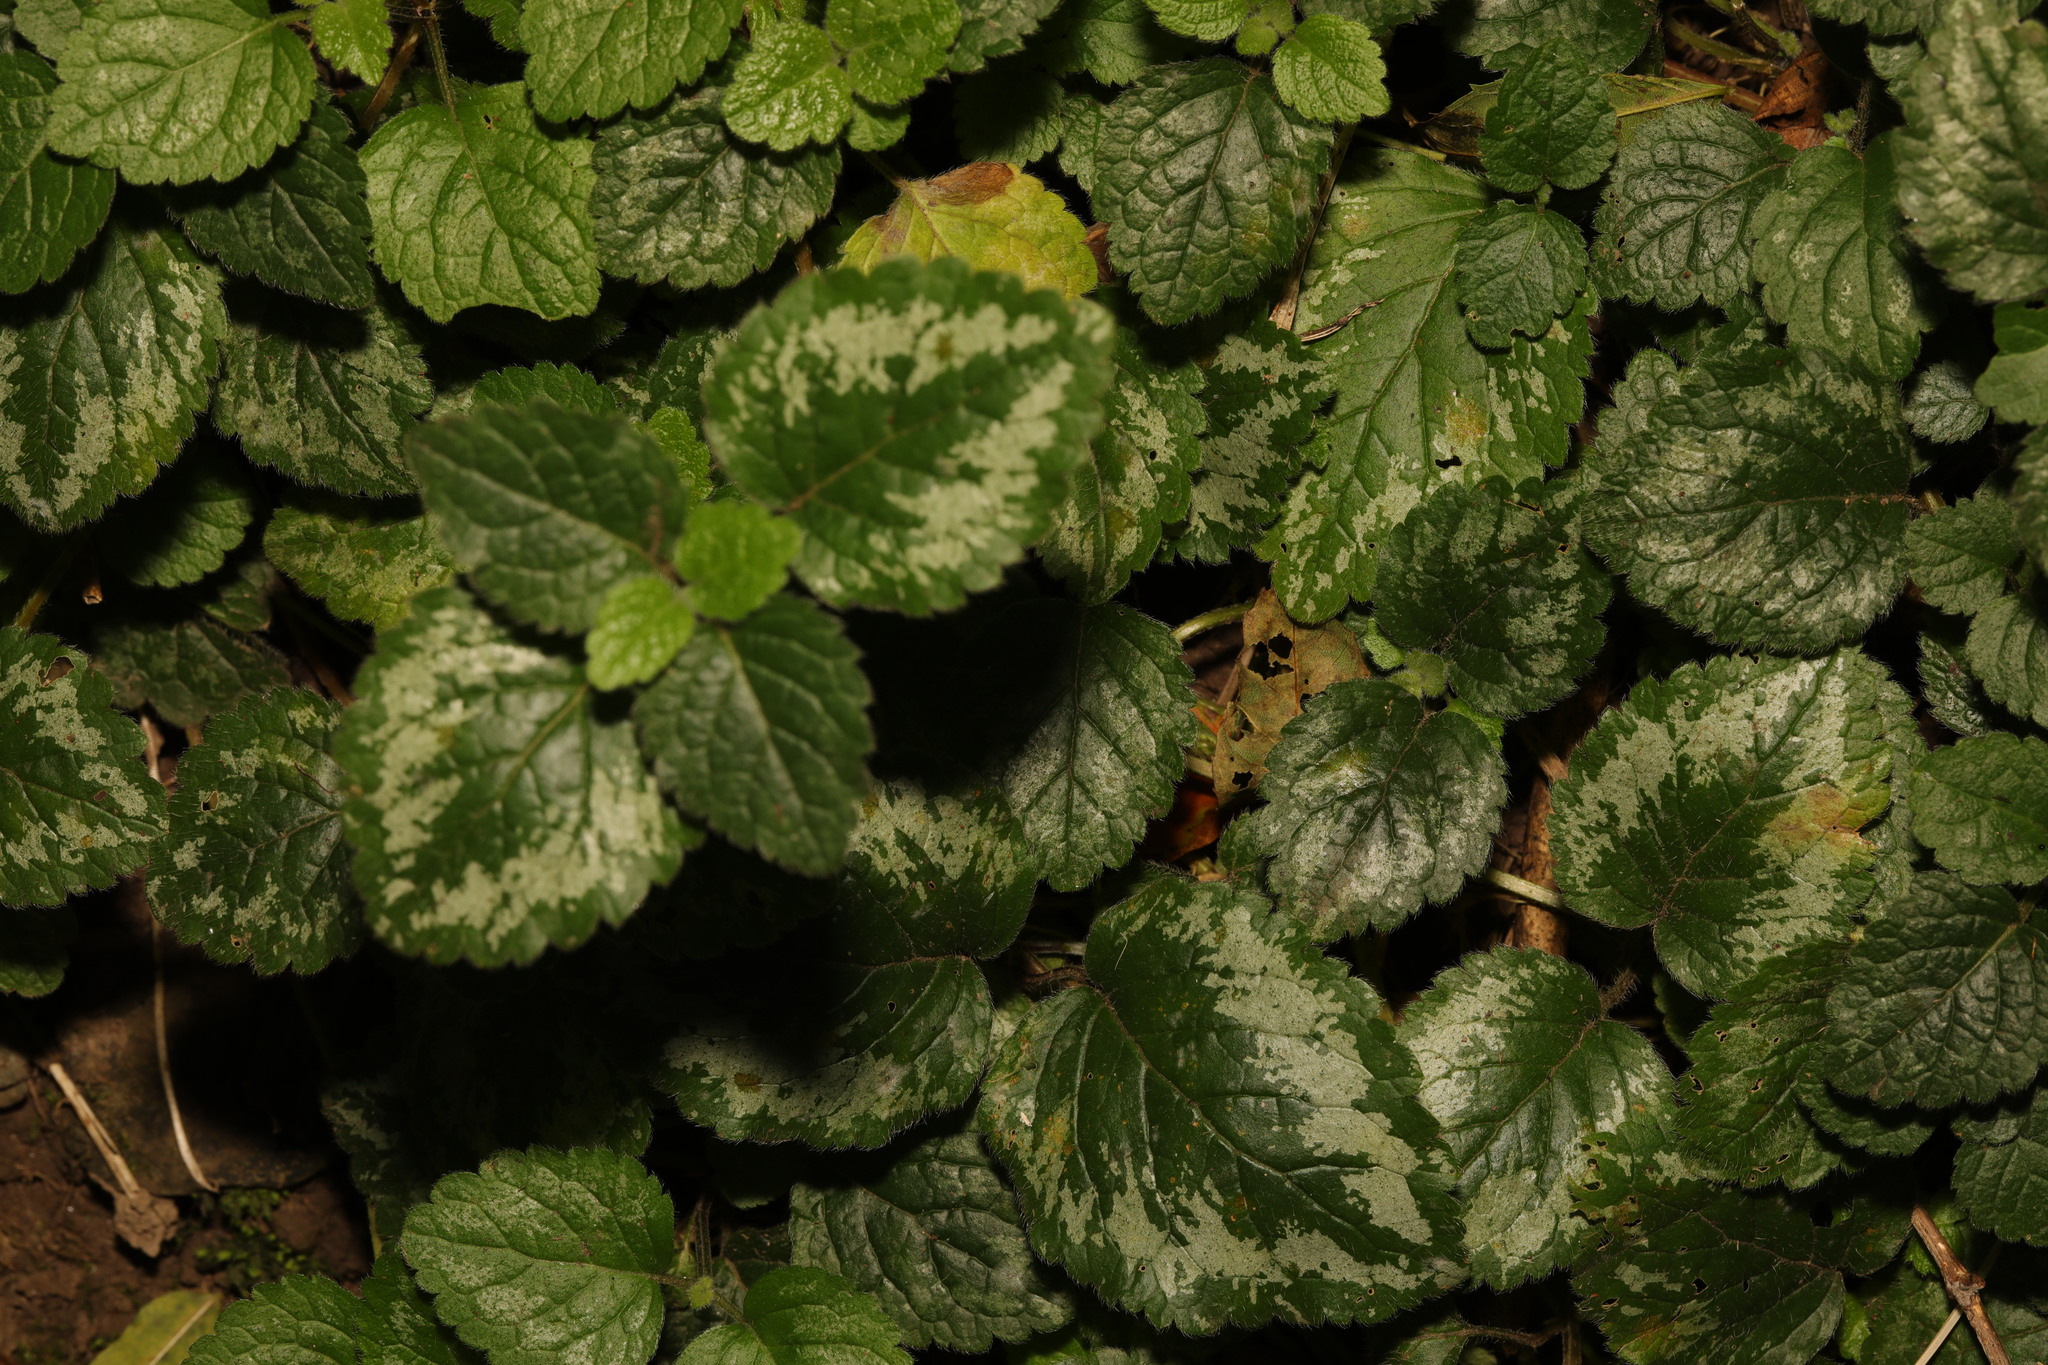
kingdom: Plantae
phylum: Tracheophyta
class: Magnoliopsida
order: Lamiales
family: Lamiaceae
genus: Lamium
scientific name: Lamium galeobdolon
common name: Yellow archangel
